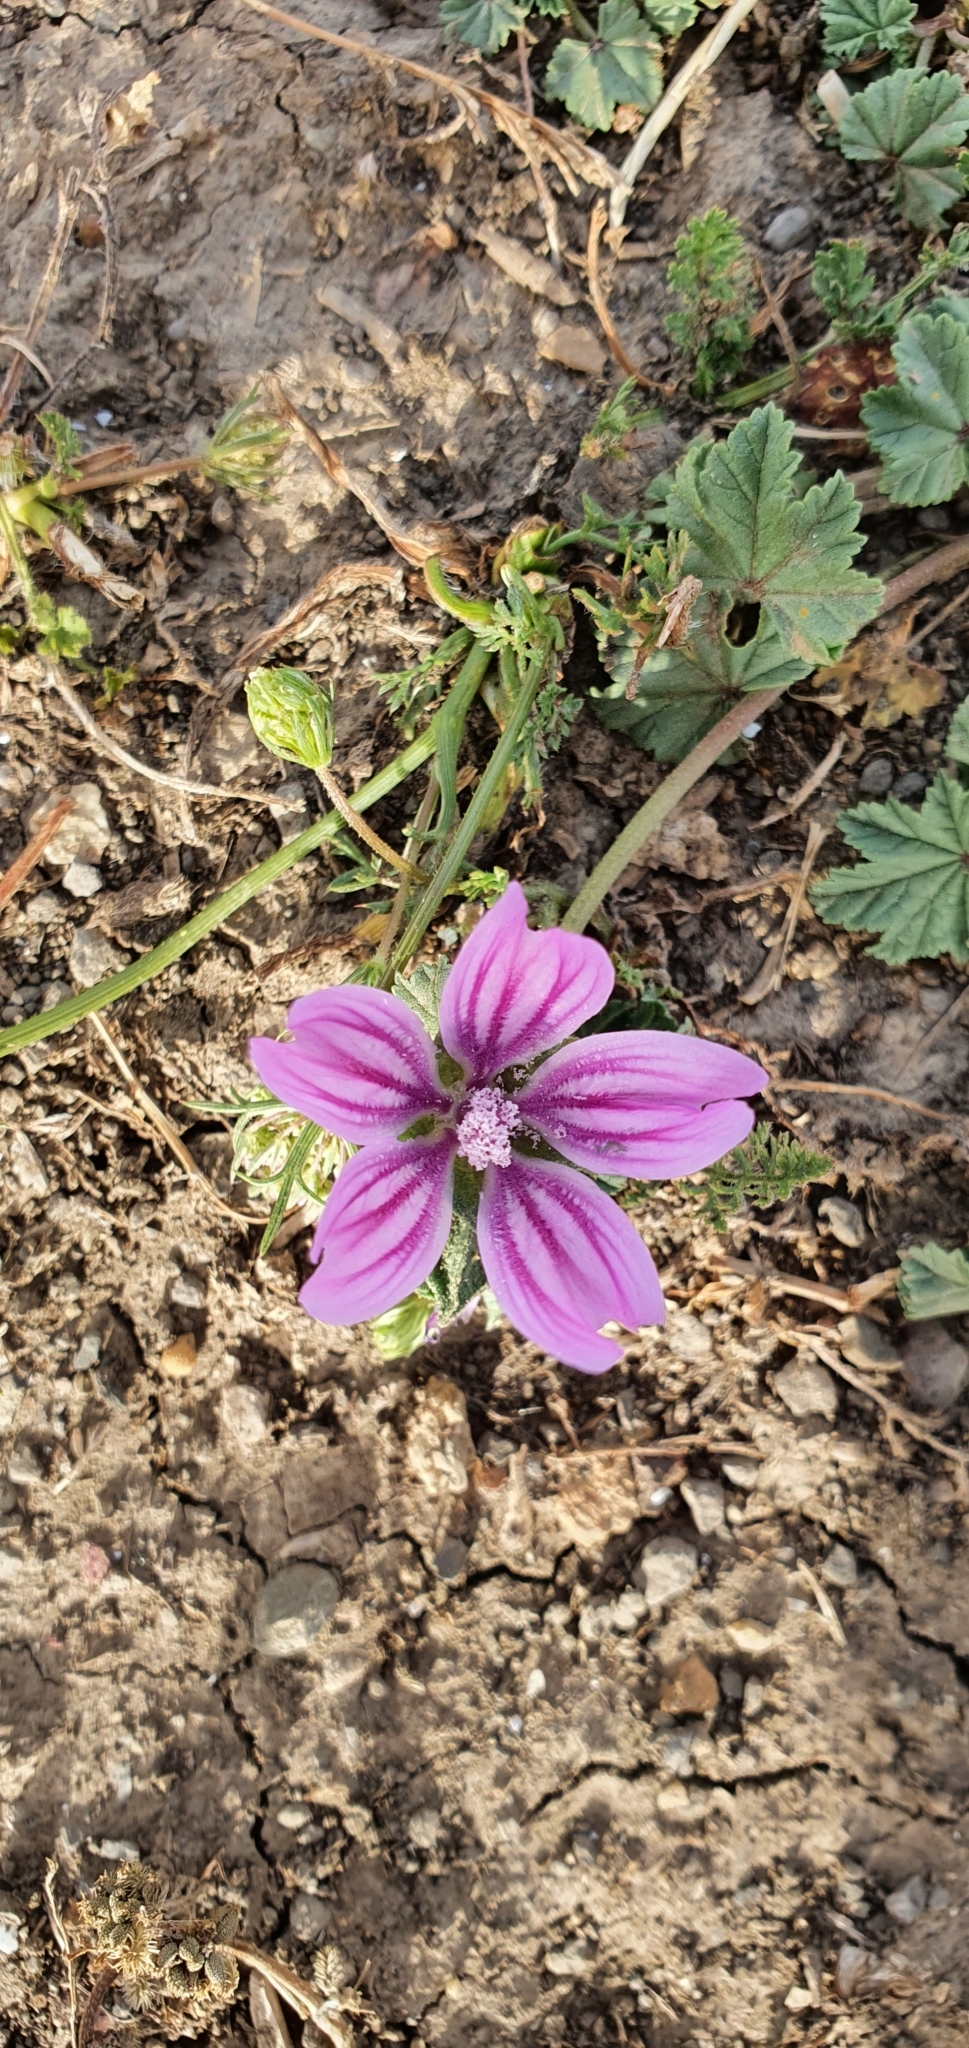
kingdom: Plantae
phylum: Tracheophyta
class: Magnoliopsida
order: Malvales
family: Malvaceae
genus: Malva
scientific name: Malva sylvestris
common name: Common mallow
